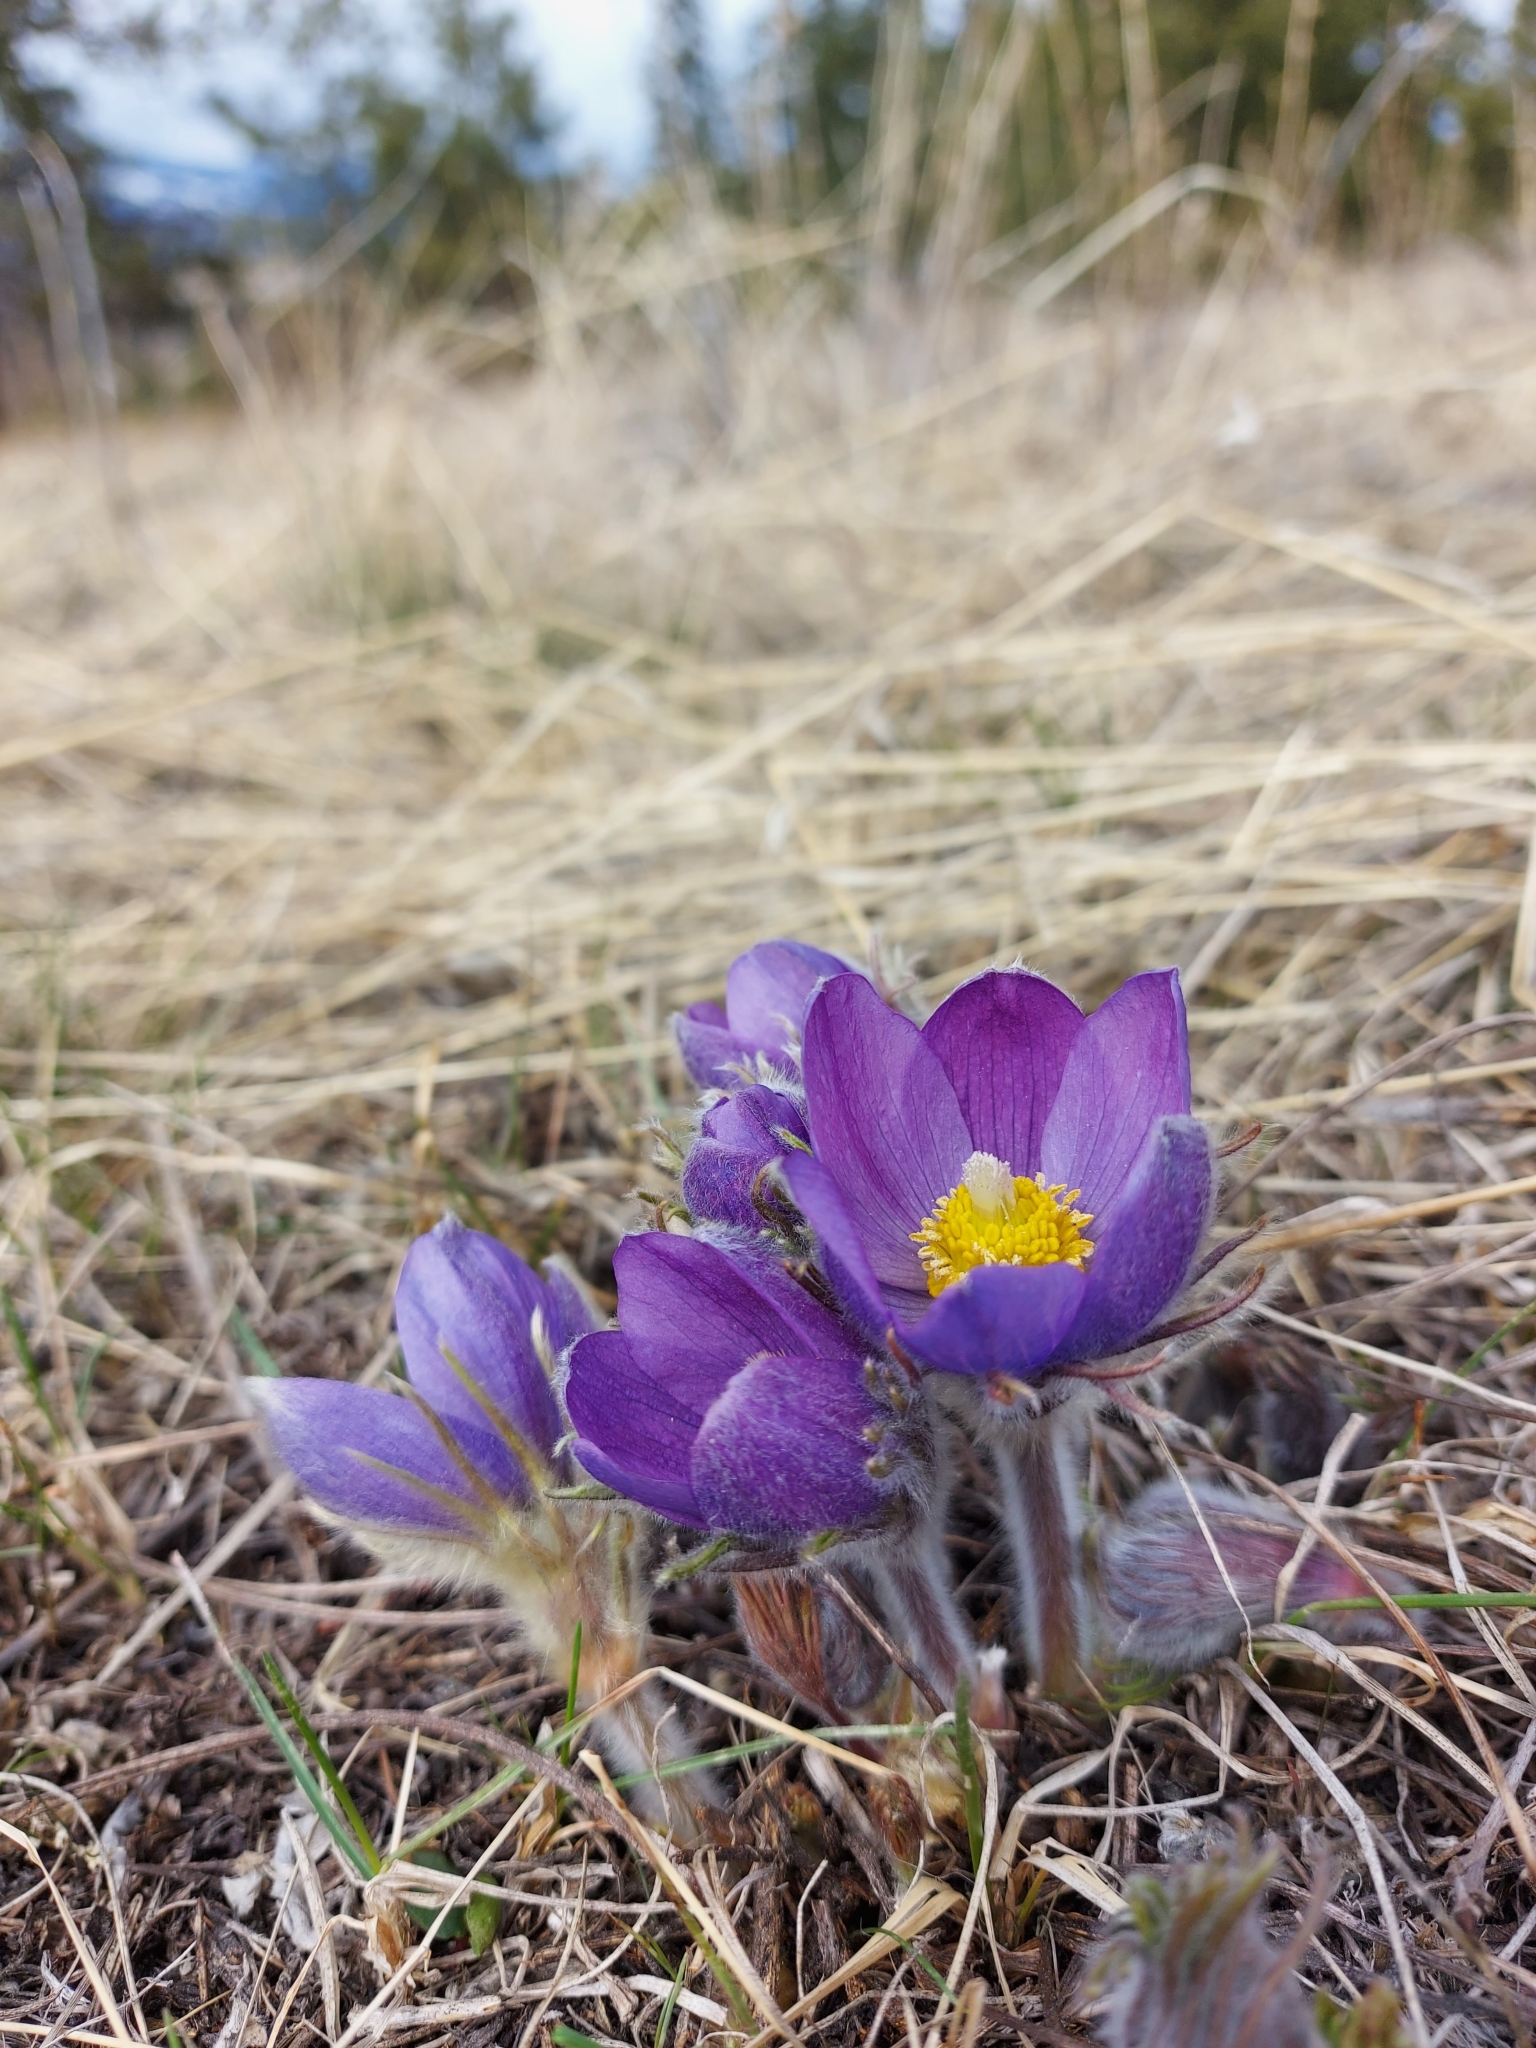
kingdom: Plantae
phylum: Tracheophyta
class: Magnoliopsida
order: Ranunculales
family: Ranunculaceae
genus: Pulsatilla
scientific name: Pulsatilla nuttalliana
